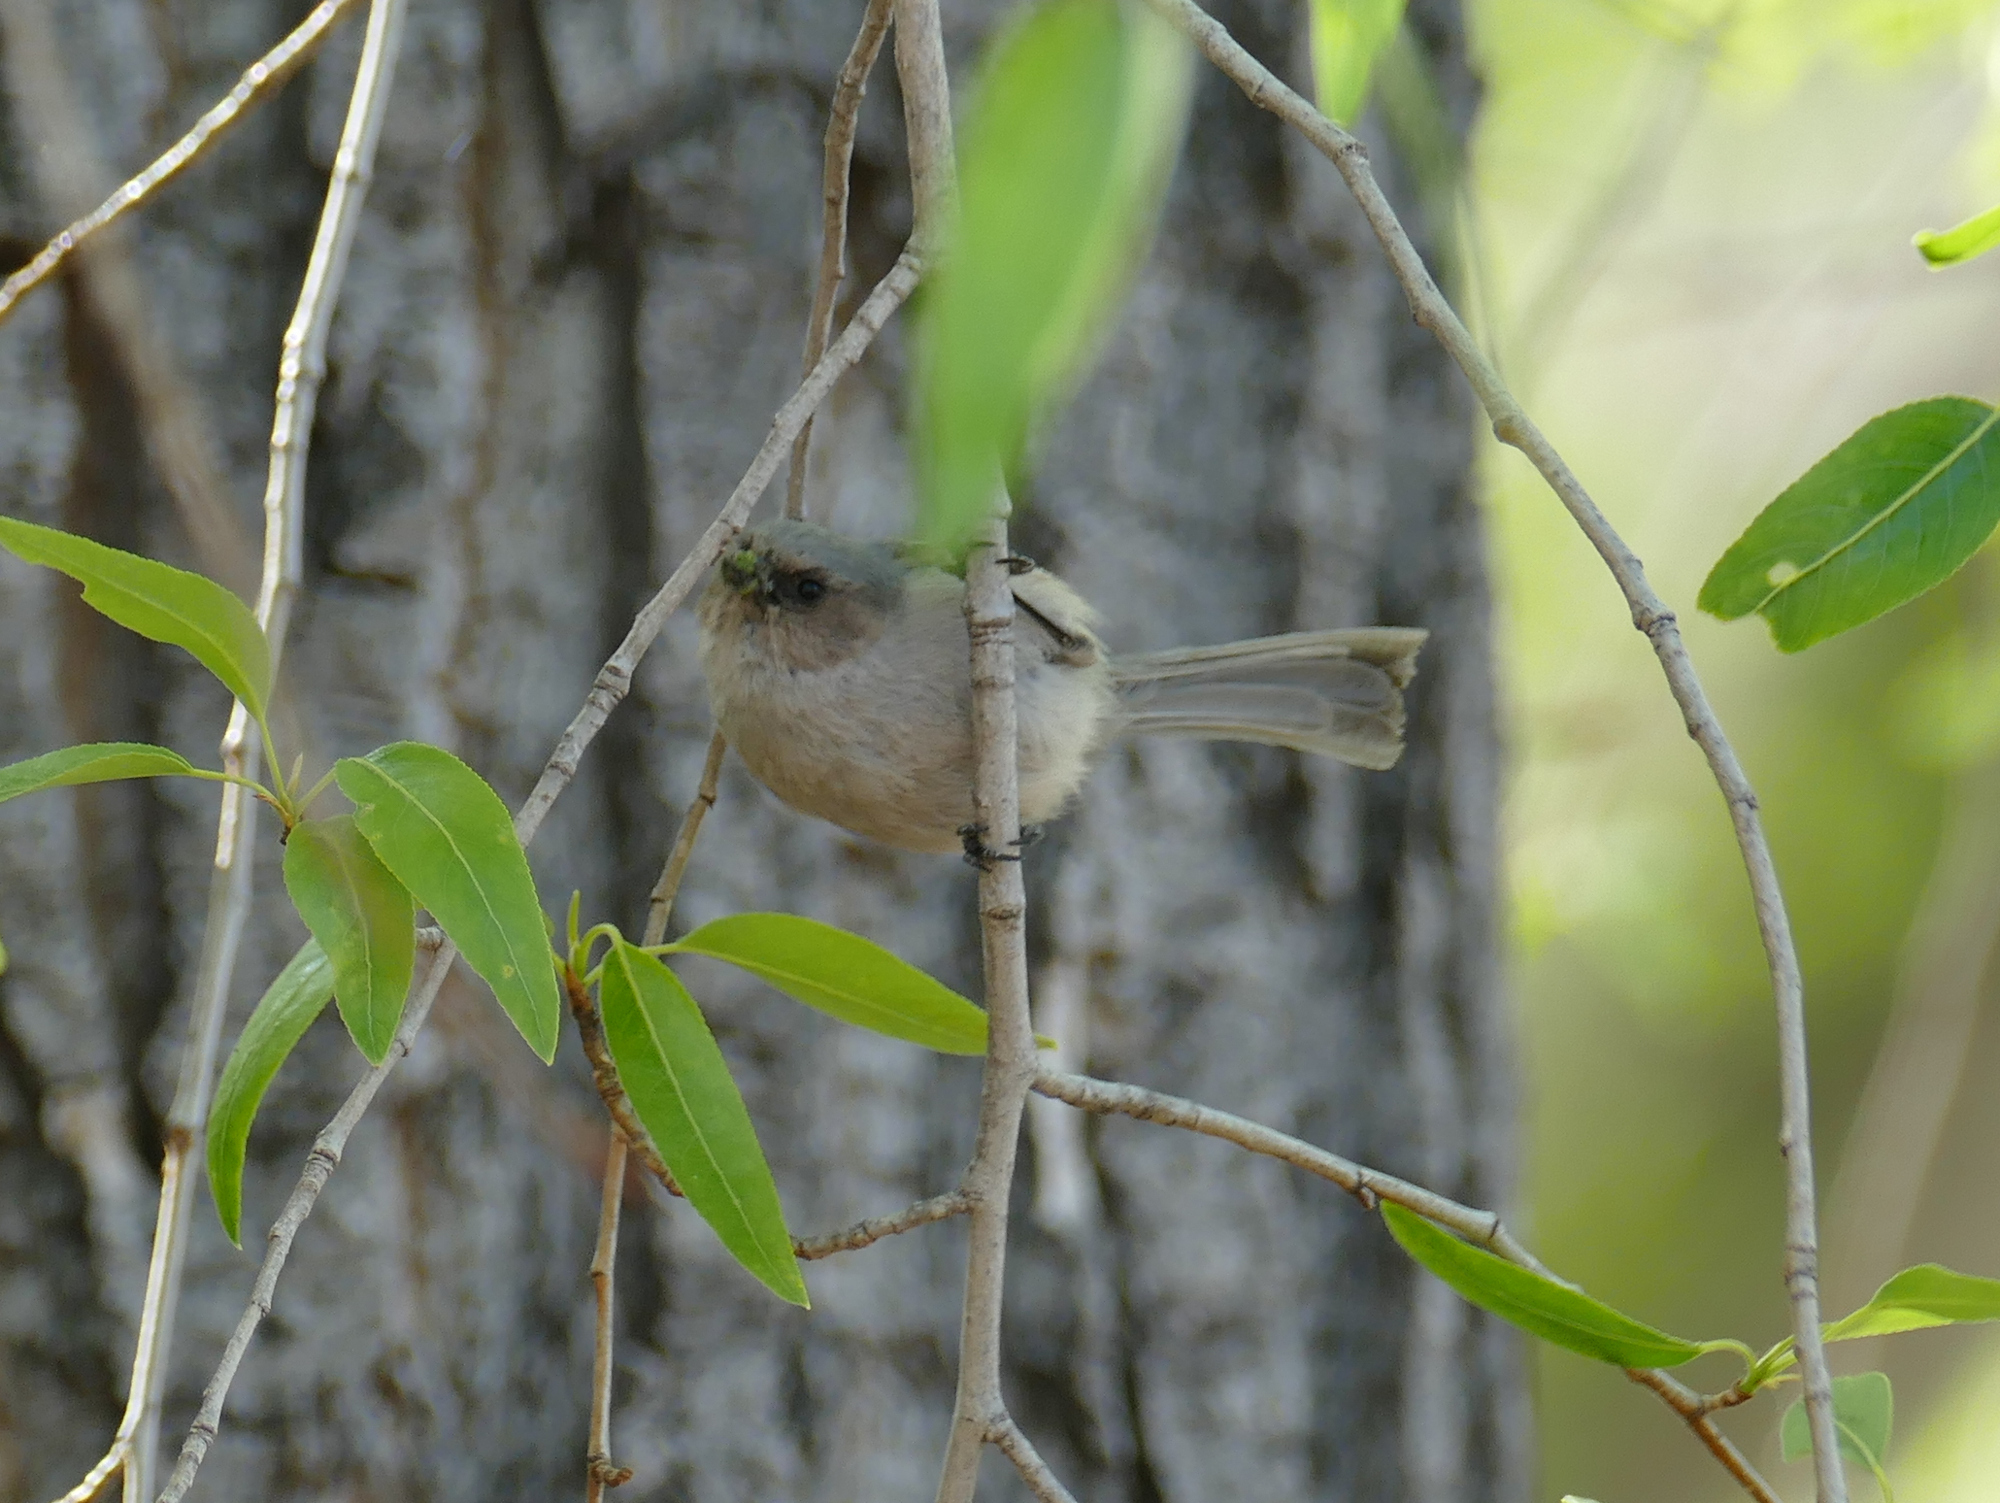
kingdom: Animalia
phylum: Chordata
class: Aves
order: Passeriformes
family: Aegithalidae
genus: Psaltriparus
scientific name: Psaltriparus minimus
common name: American bushtit
